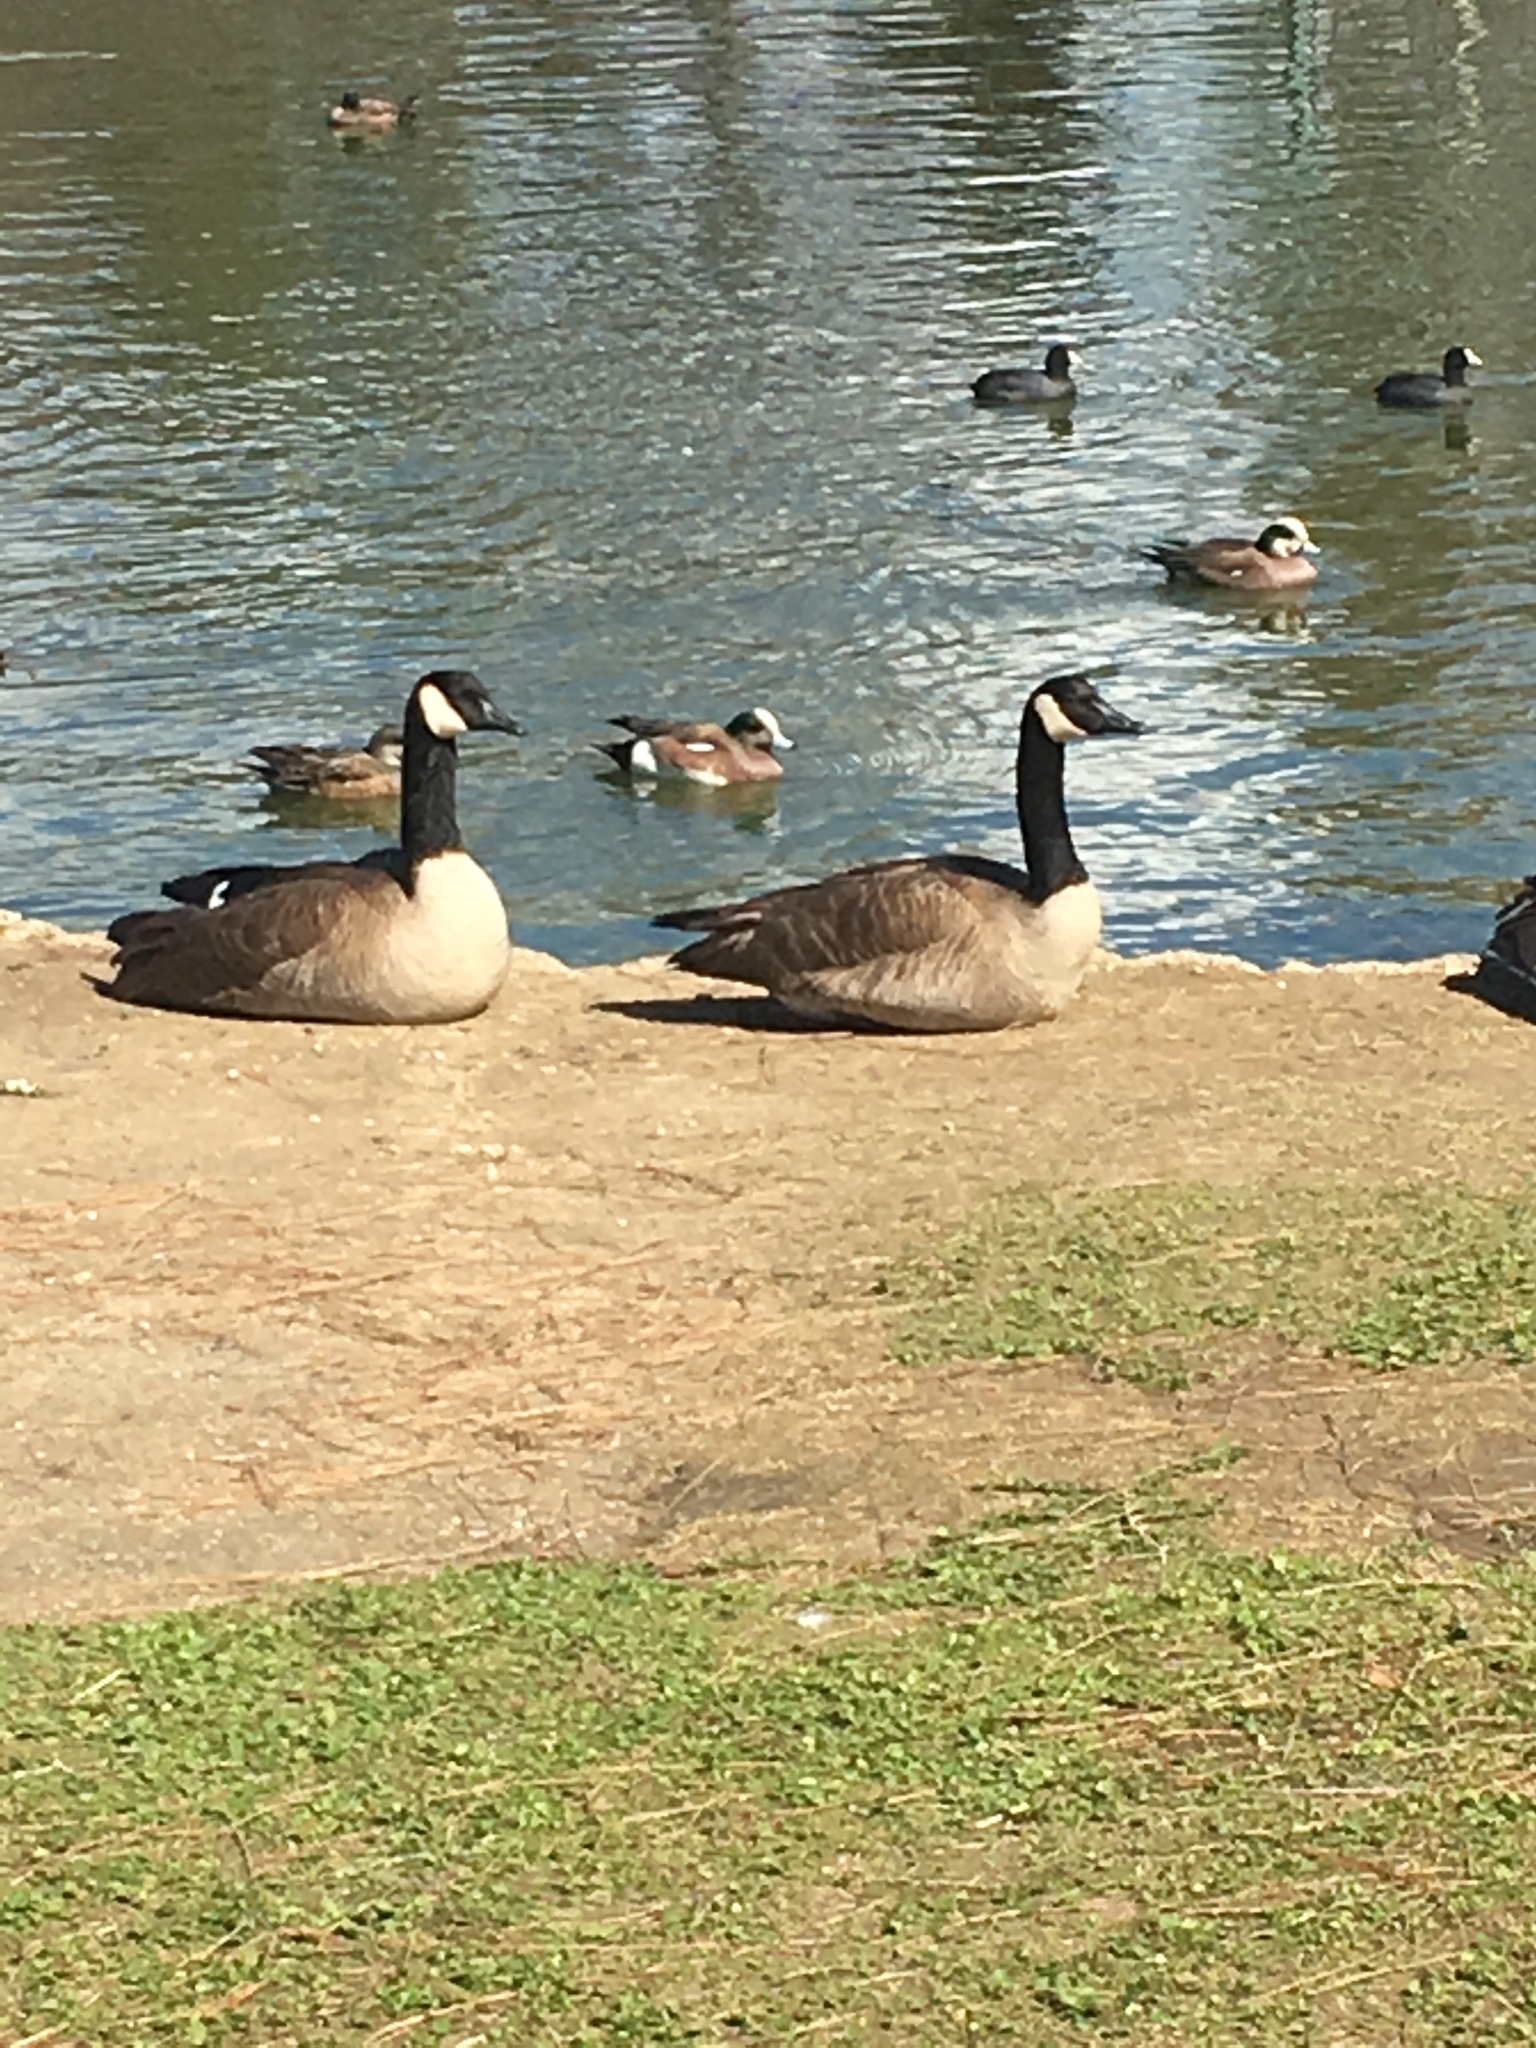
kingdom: Animalia
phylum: Chordata
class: Aves
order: Anseriformes
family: Anatidae
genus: Branta
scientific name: Branta canadensis
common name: Canada goose
